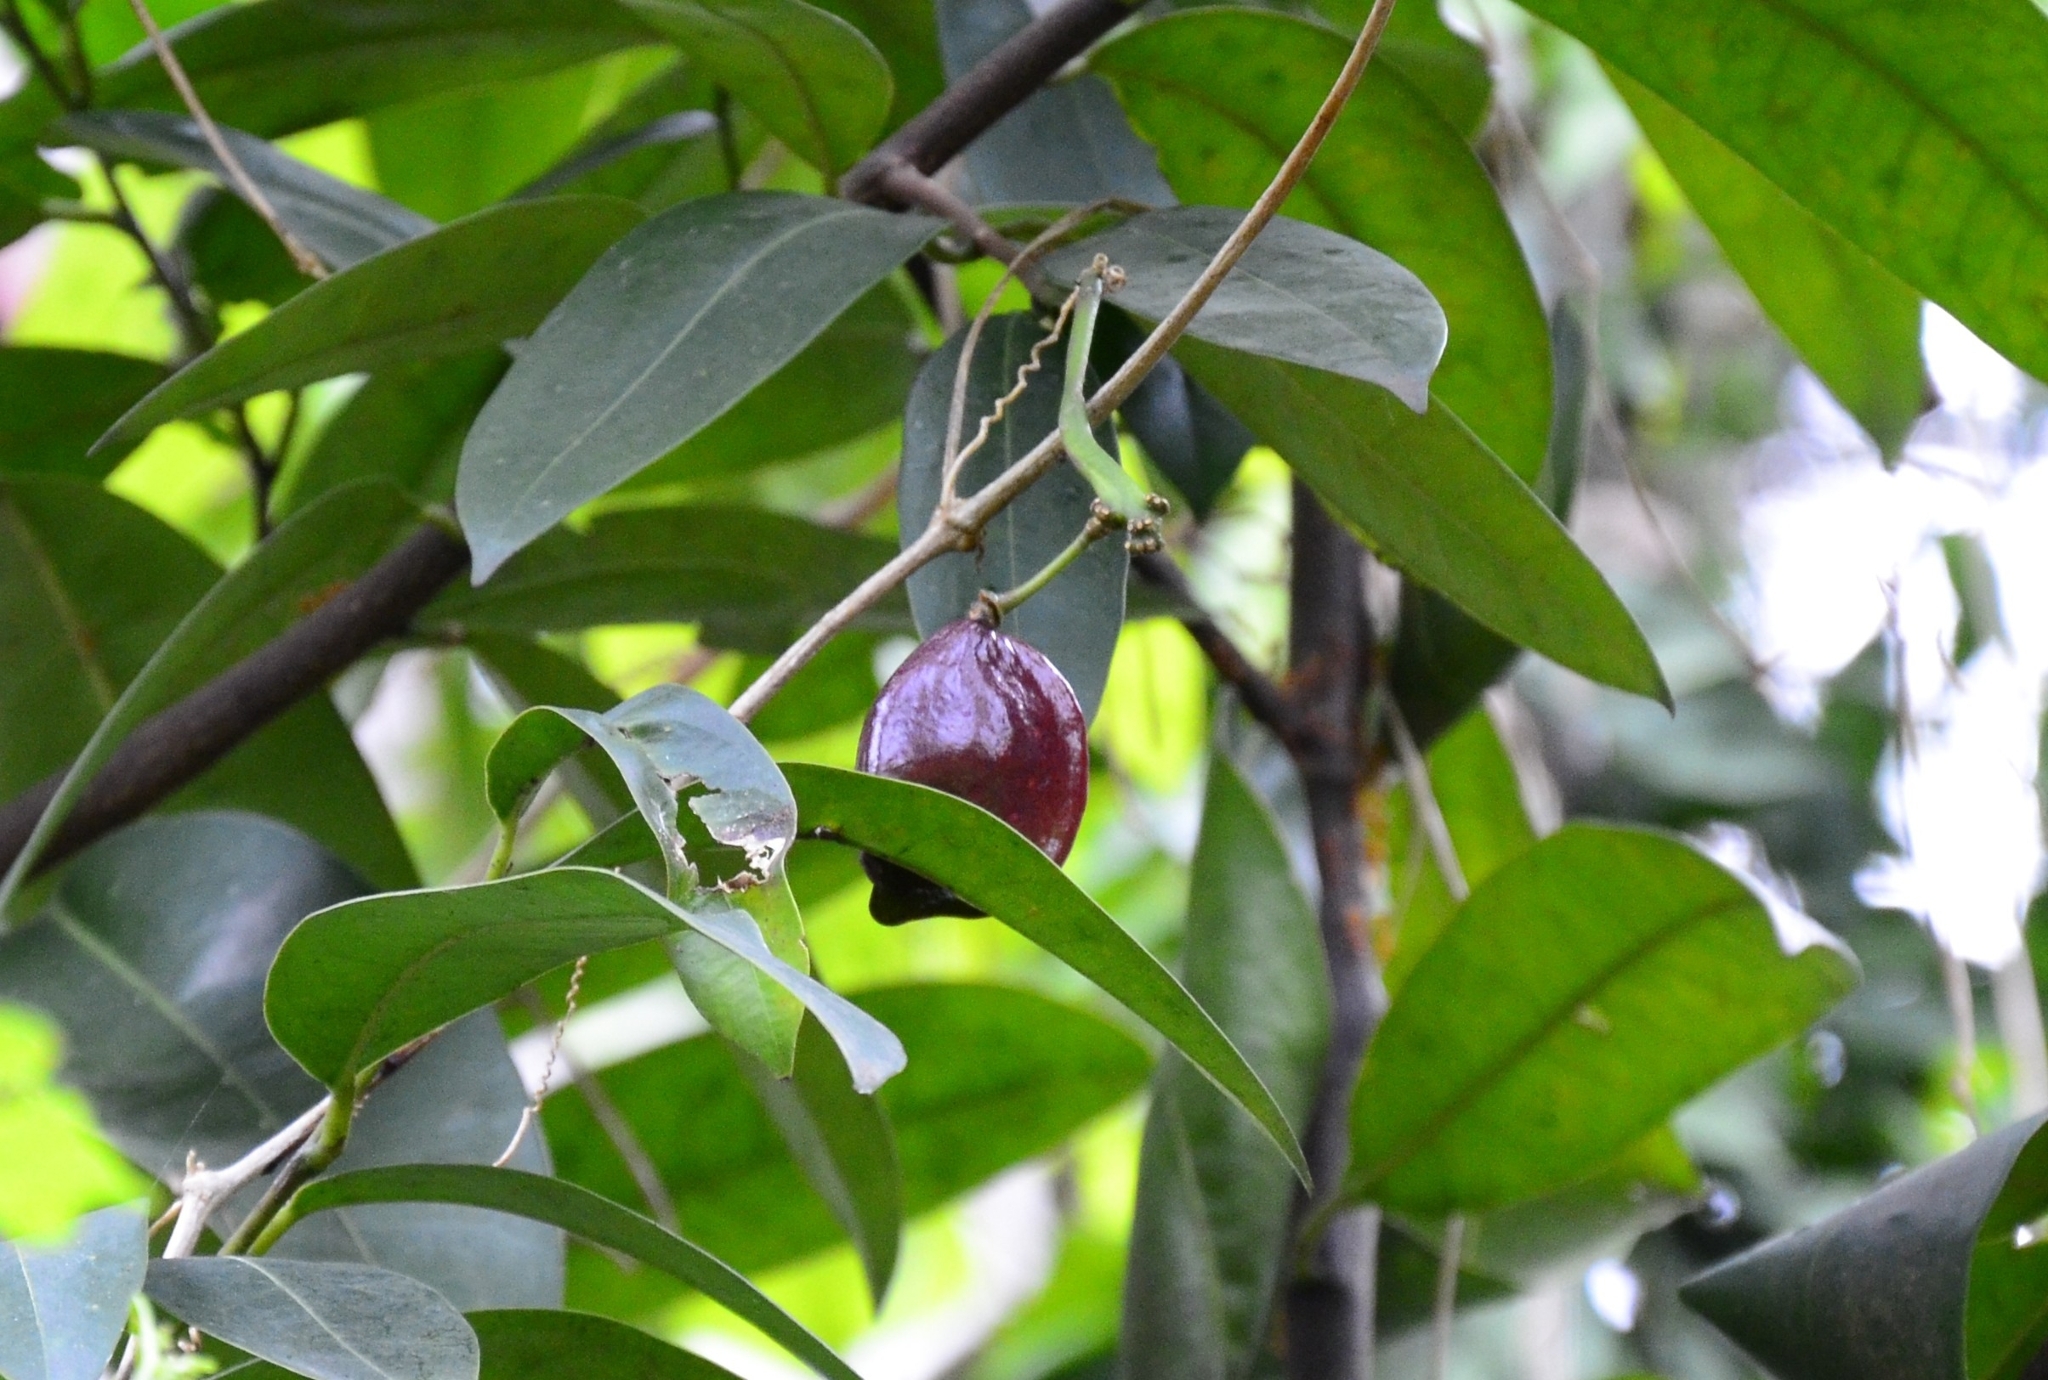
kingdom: Plantae
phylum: Tracheophyta
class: Magnoliopsida
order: Sapindales
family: Simaroubaceae
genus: Samadera
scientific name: Samadera indica
